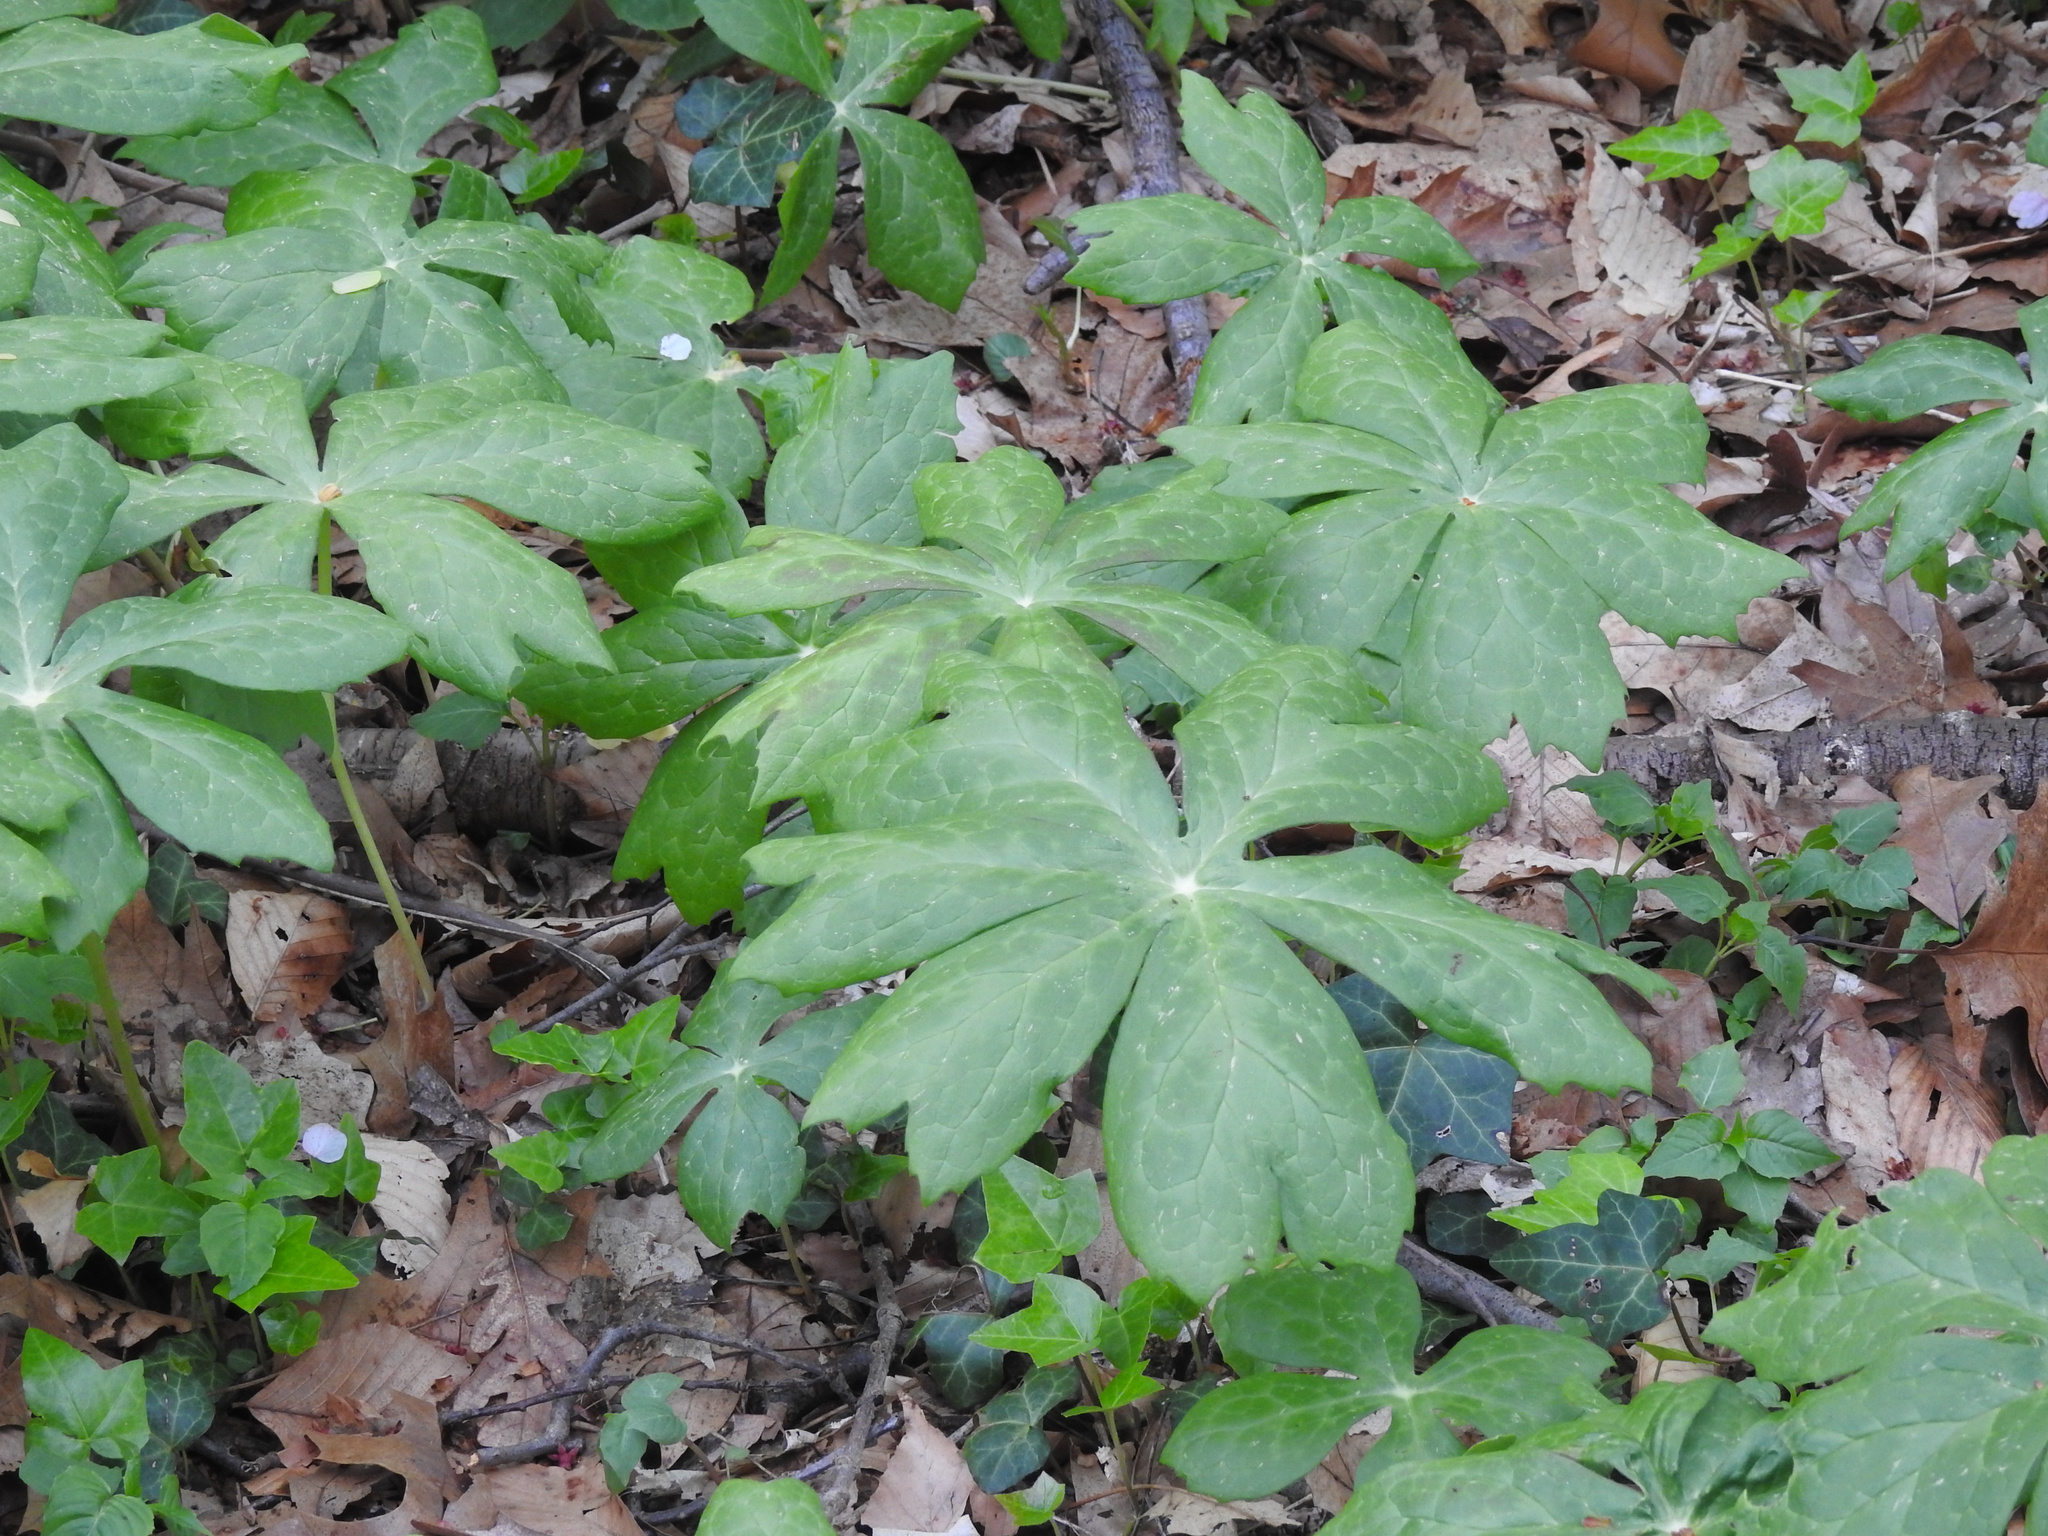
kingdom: Plantae
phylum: Tracheophyta
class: Magnoliopsida
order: Ranunculales
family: Berberidaceae
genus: Podophyllum
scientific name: Podophyllum peltatum
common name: Wild mandrake
